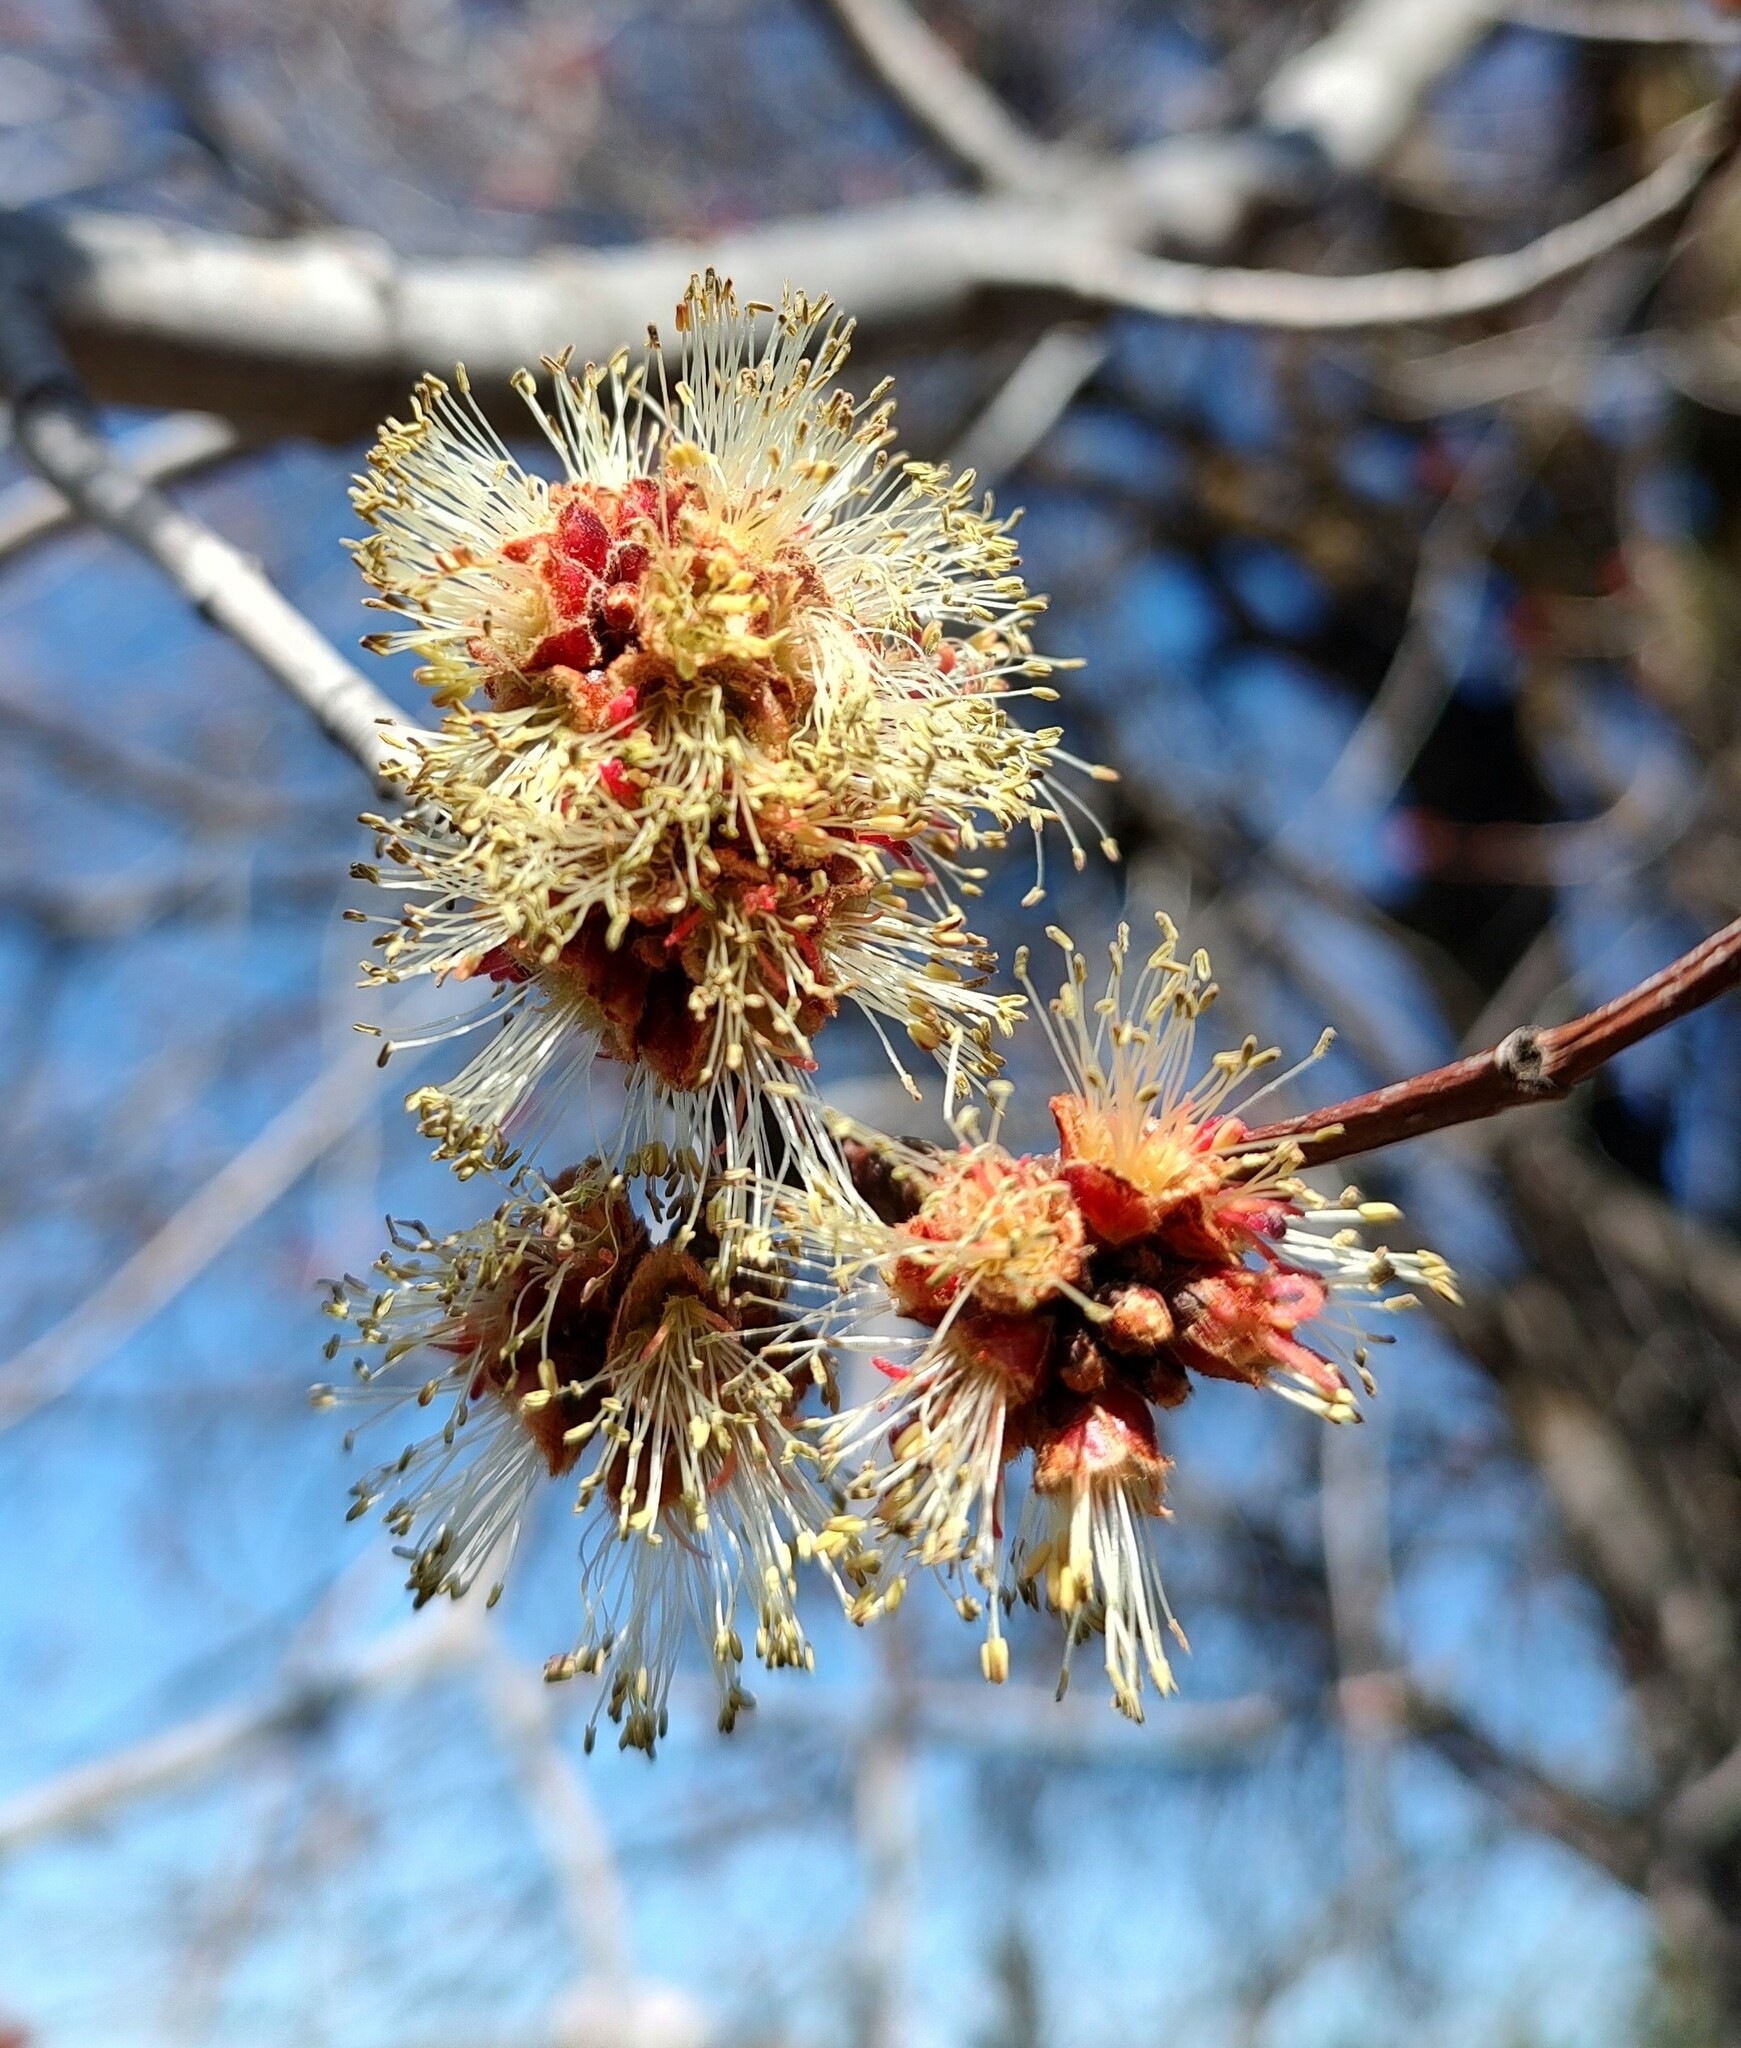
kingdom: Plantae
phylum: Tracheophyta
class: Magnoliopsida
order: Sapindales
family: Sapindaceae
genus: Acer
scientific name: Acer saccharinum
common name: Silver maple
